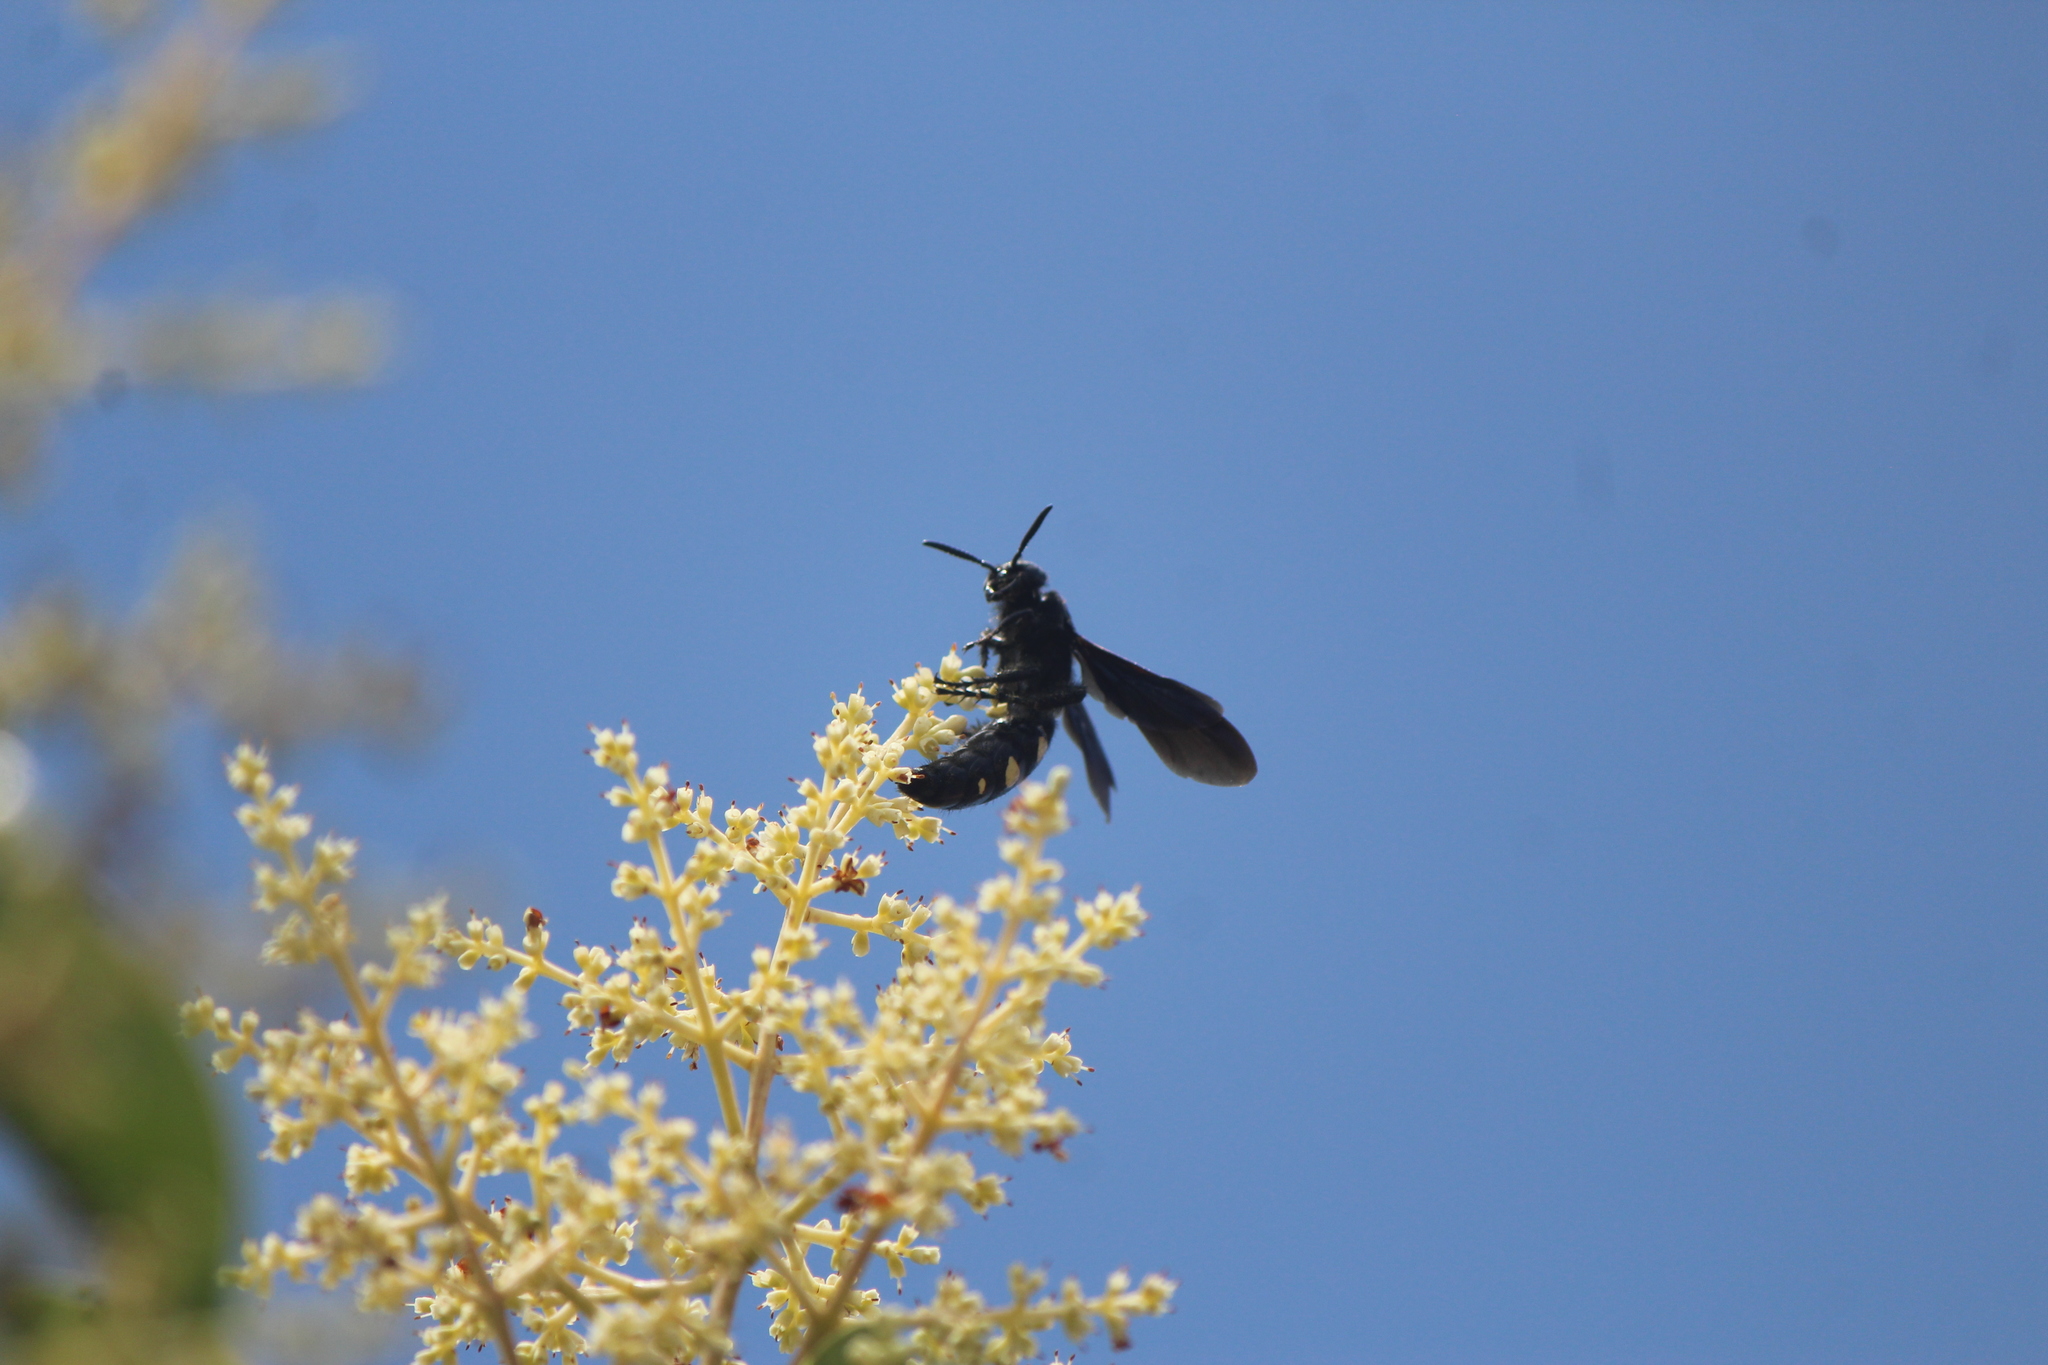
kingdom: Animalia
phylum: Arthropoda
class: Insecta
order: Hymenoptera
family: Scoliidae
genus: Scolia
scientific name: Scolia guttata
